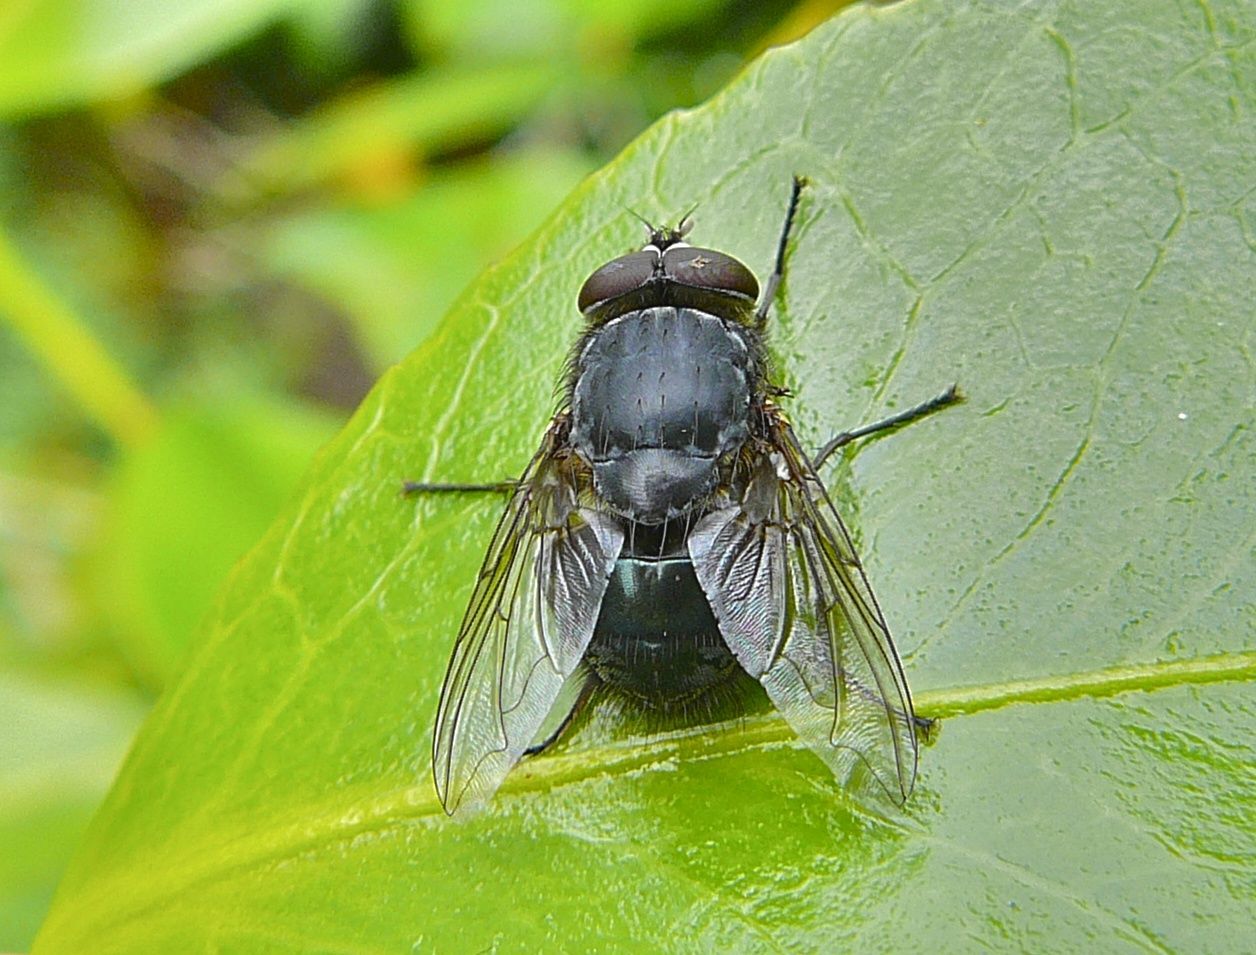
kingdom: Animalia
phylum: Arthropoda
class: Insecta
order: Diptera
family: Calliphoridae
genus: Calliphora
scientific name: Calliphora vicina
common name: Common blow flie
